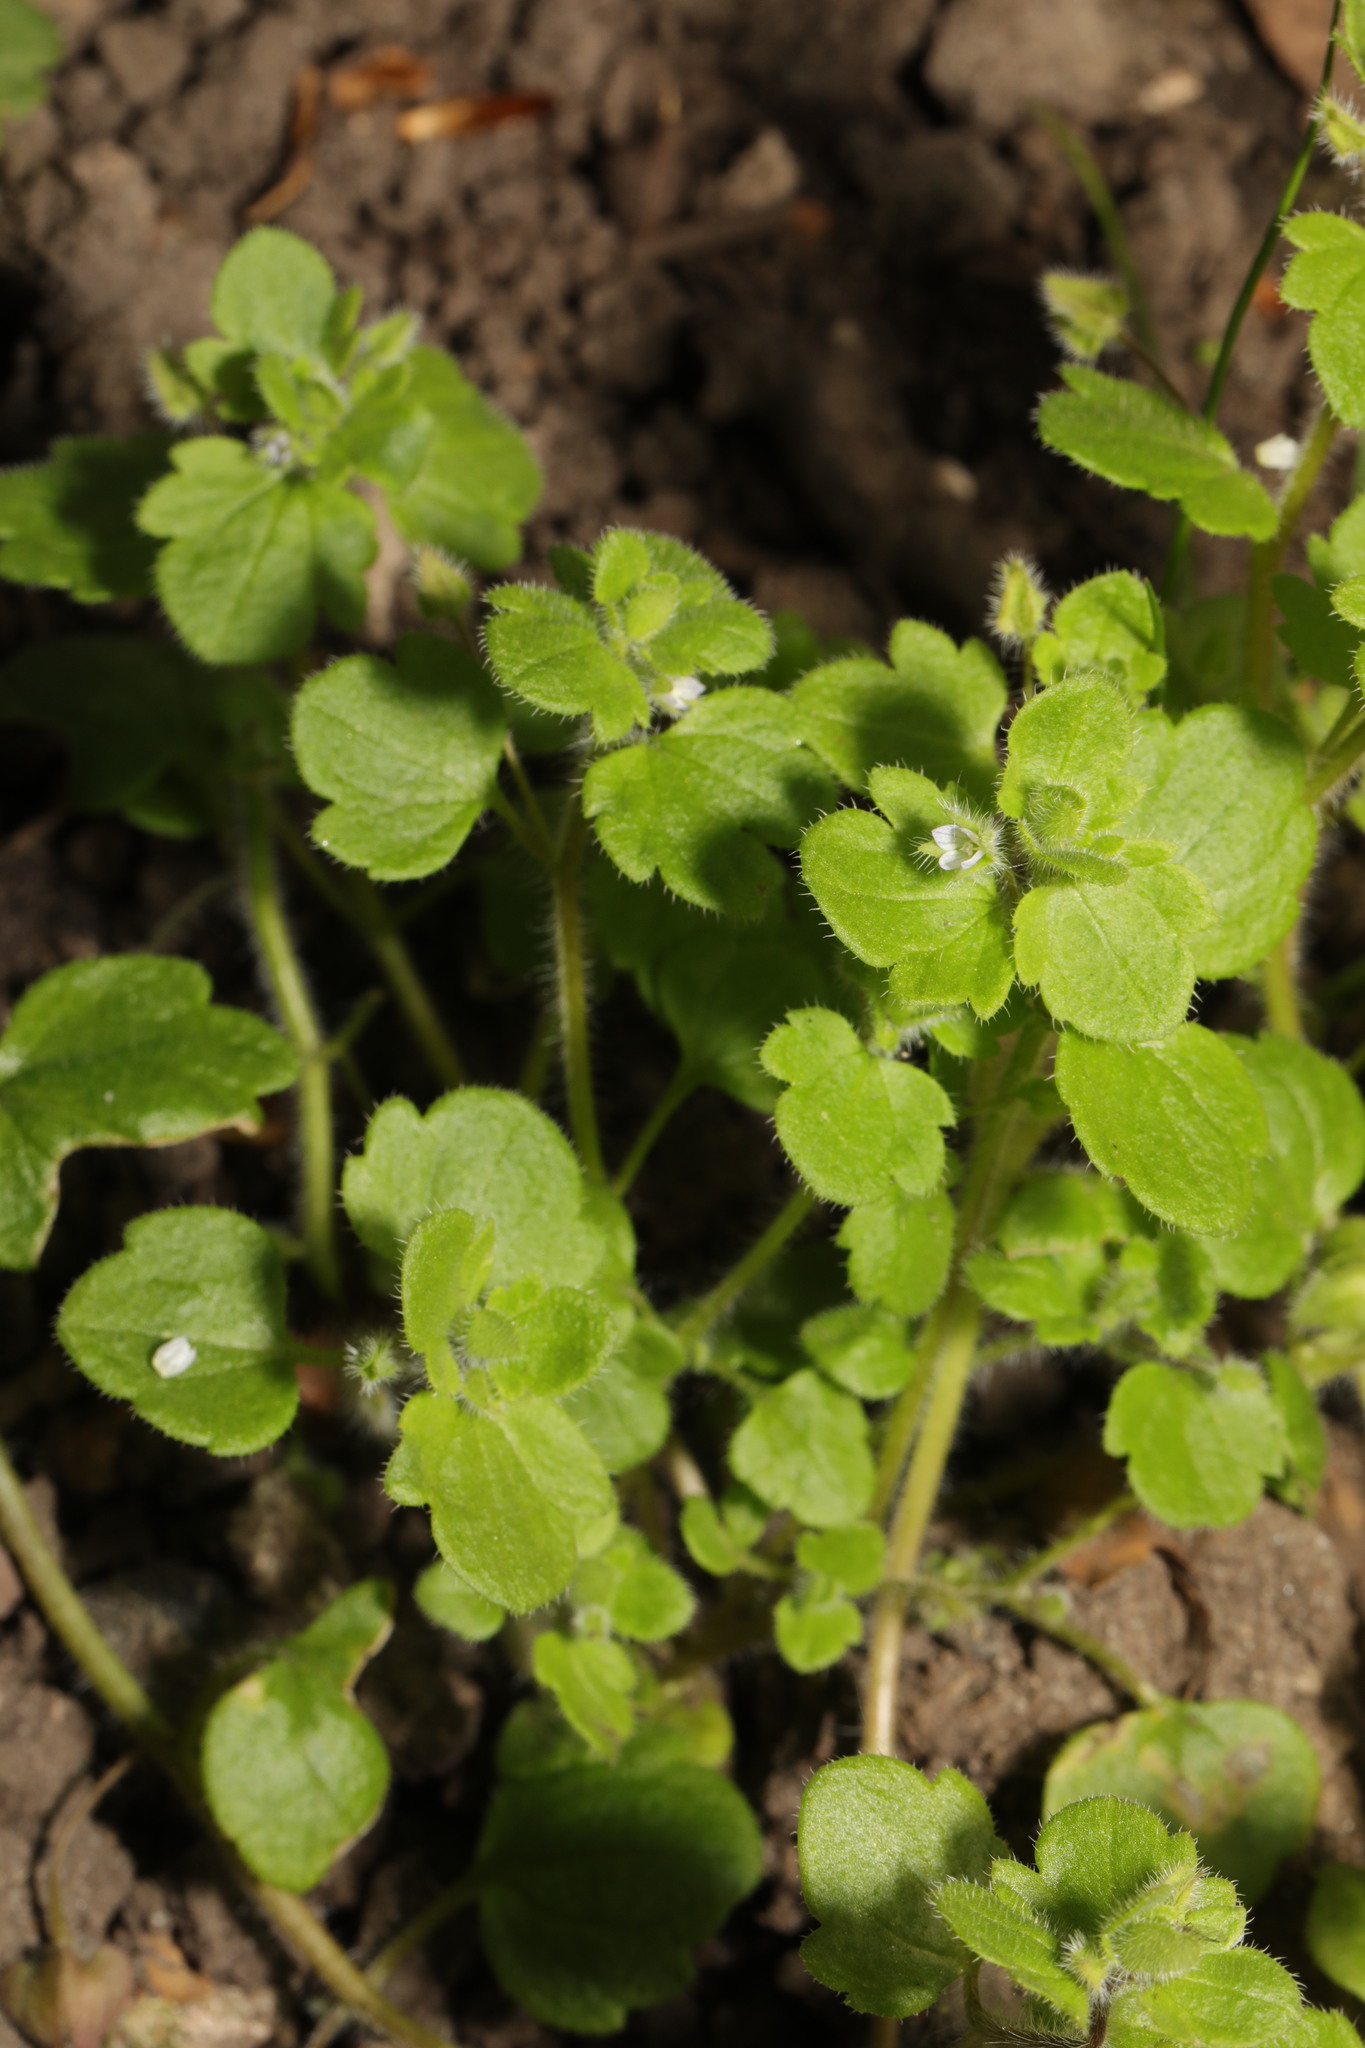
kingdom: Plantae
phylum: Tracheophyta
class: Magnoliopsida
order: Lamiales
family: Plantaginaceae
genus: Veronica
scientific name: Veronica hederifolia
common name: Ivy-leaved speedwell
